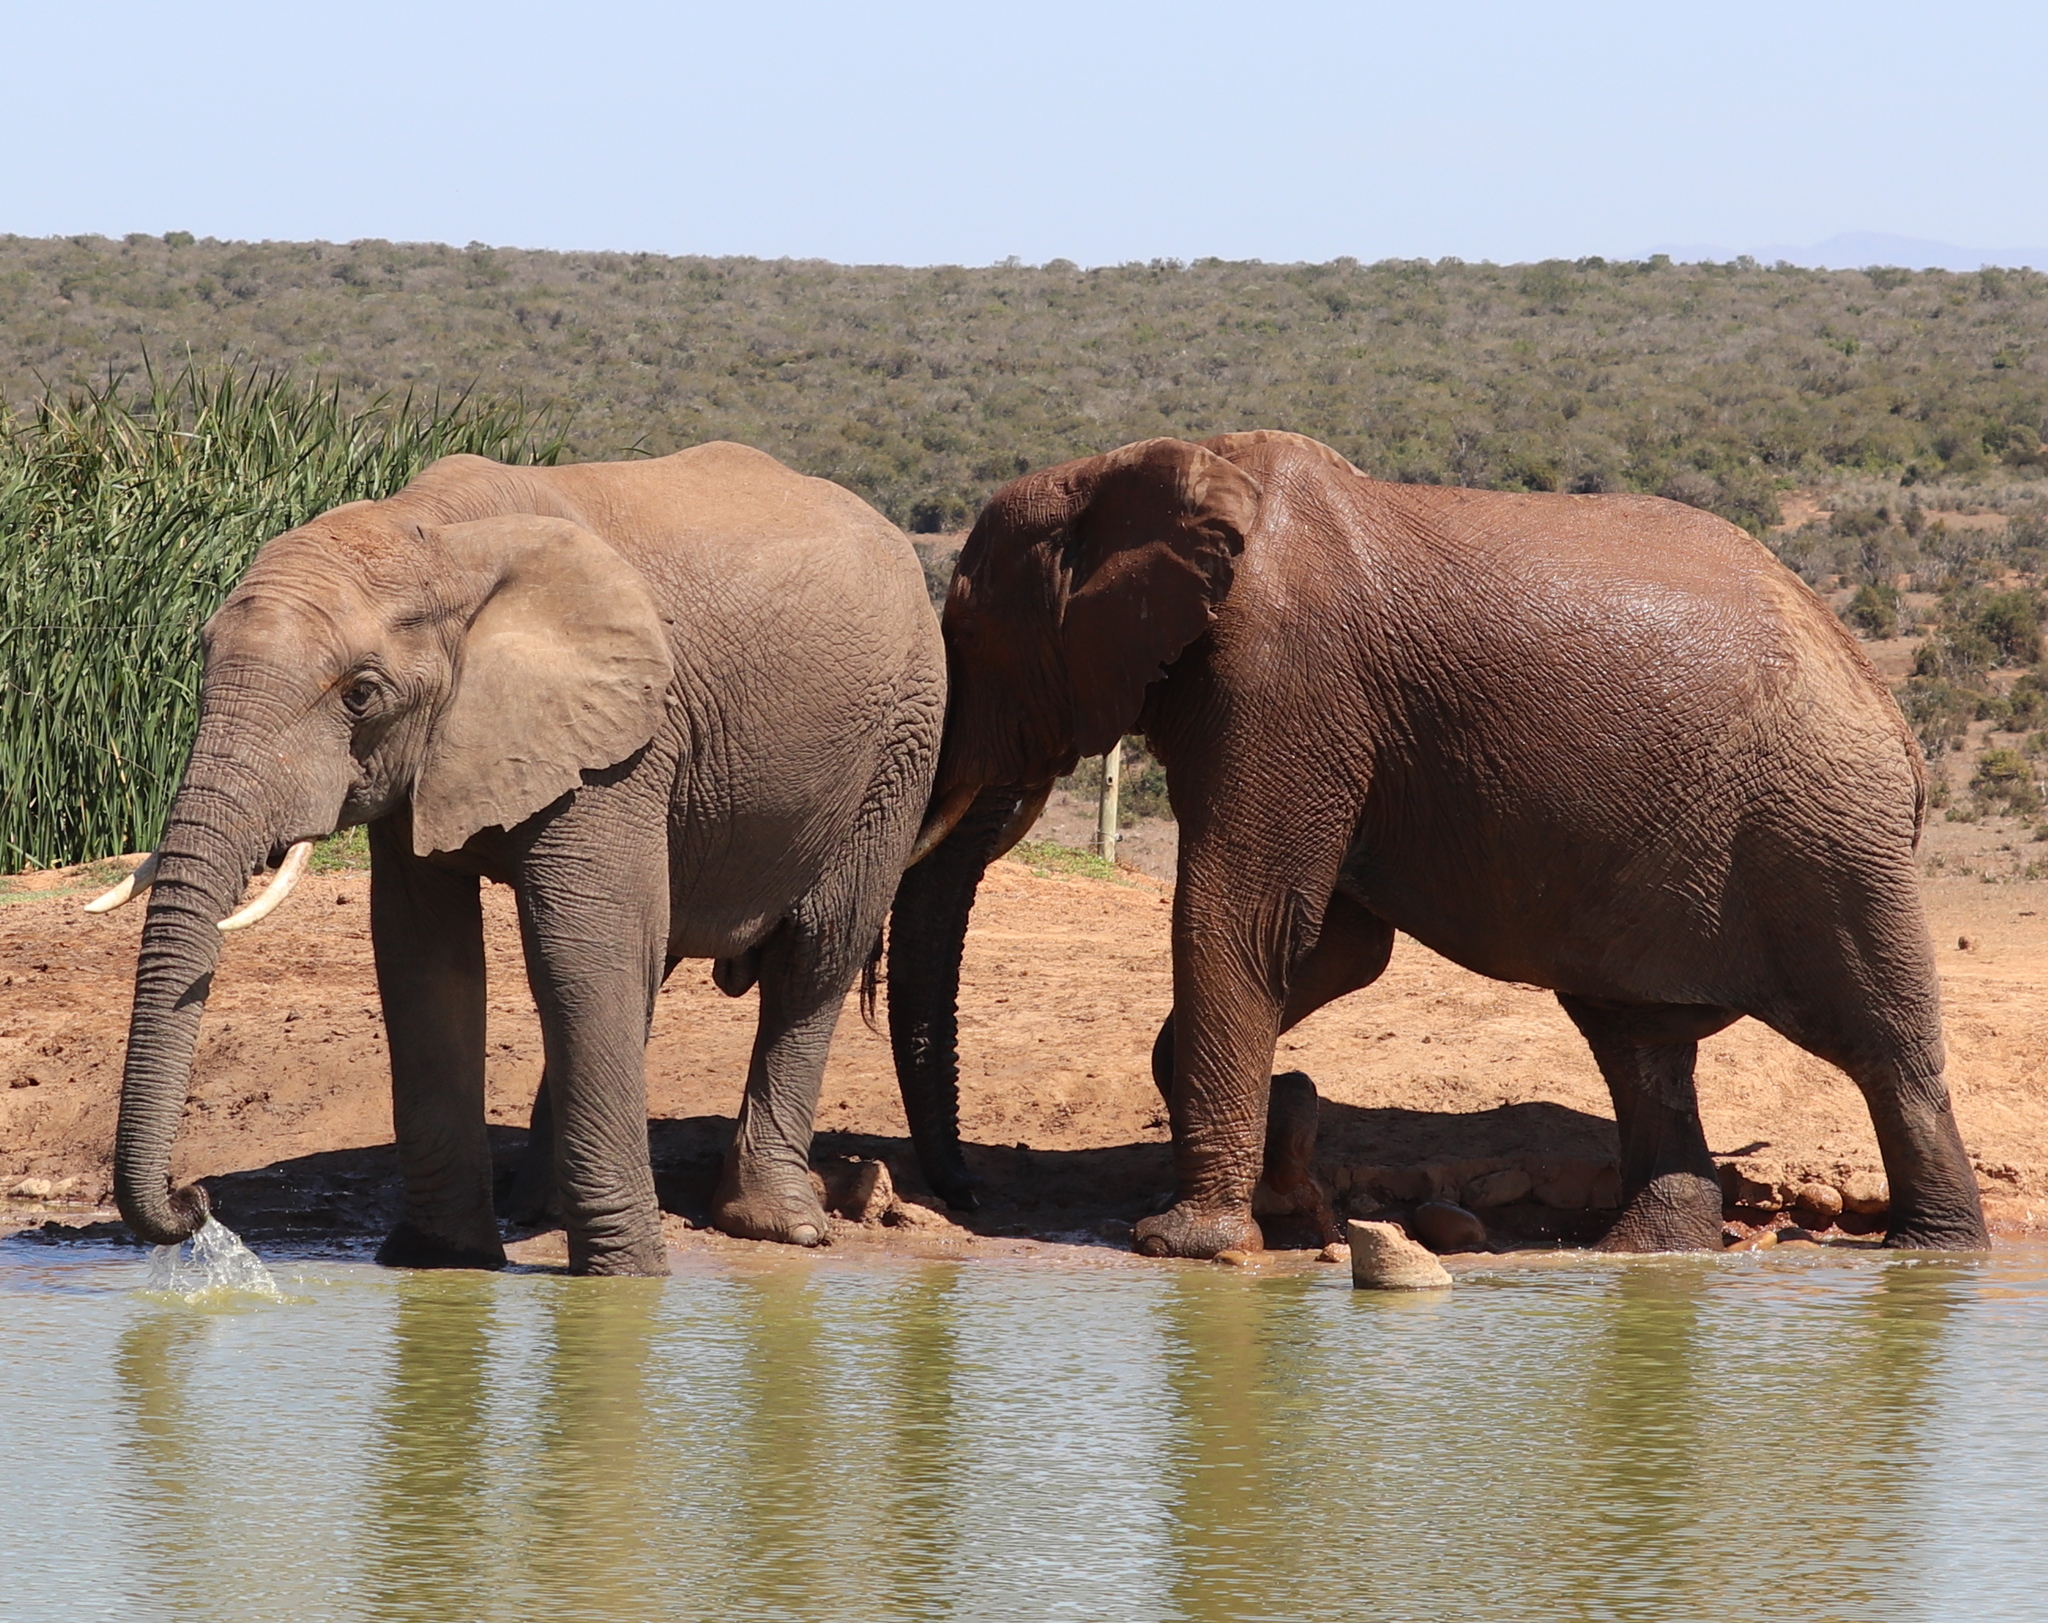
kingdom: Animalia
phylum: Chordata
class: Mammalia
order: Proboscidea
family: Elephantidae
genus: Loxodonta
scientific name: Loxodonta africana
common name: African elephant
